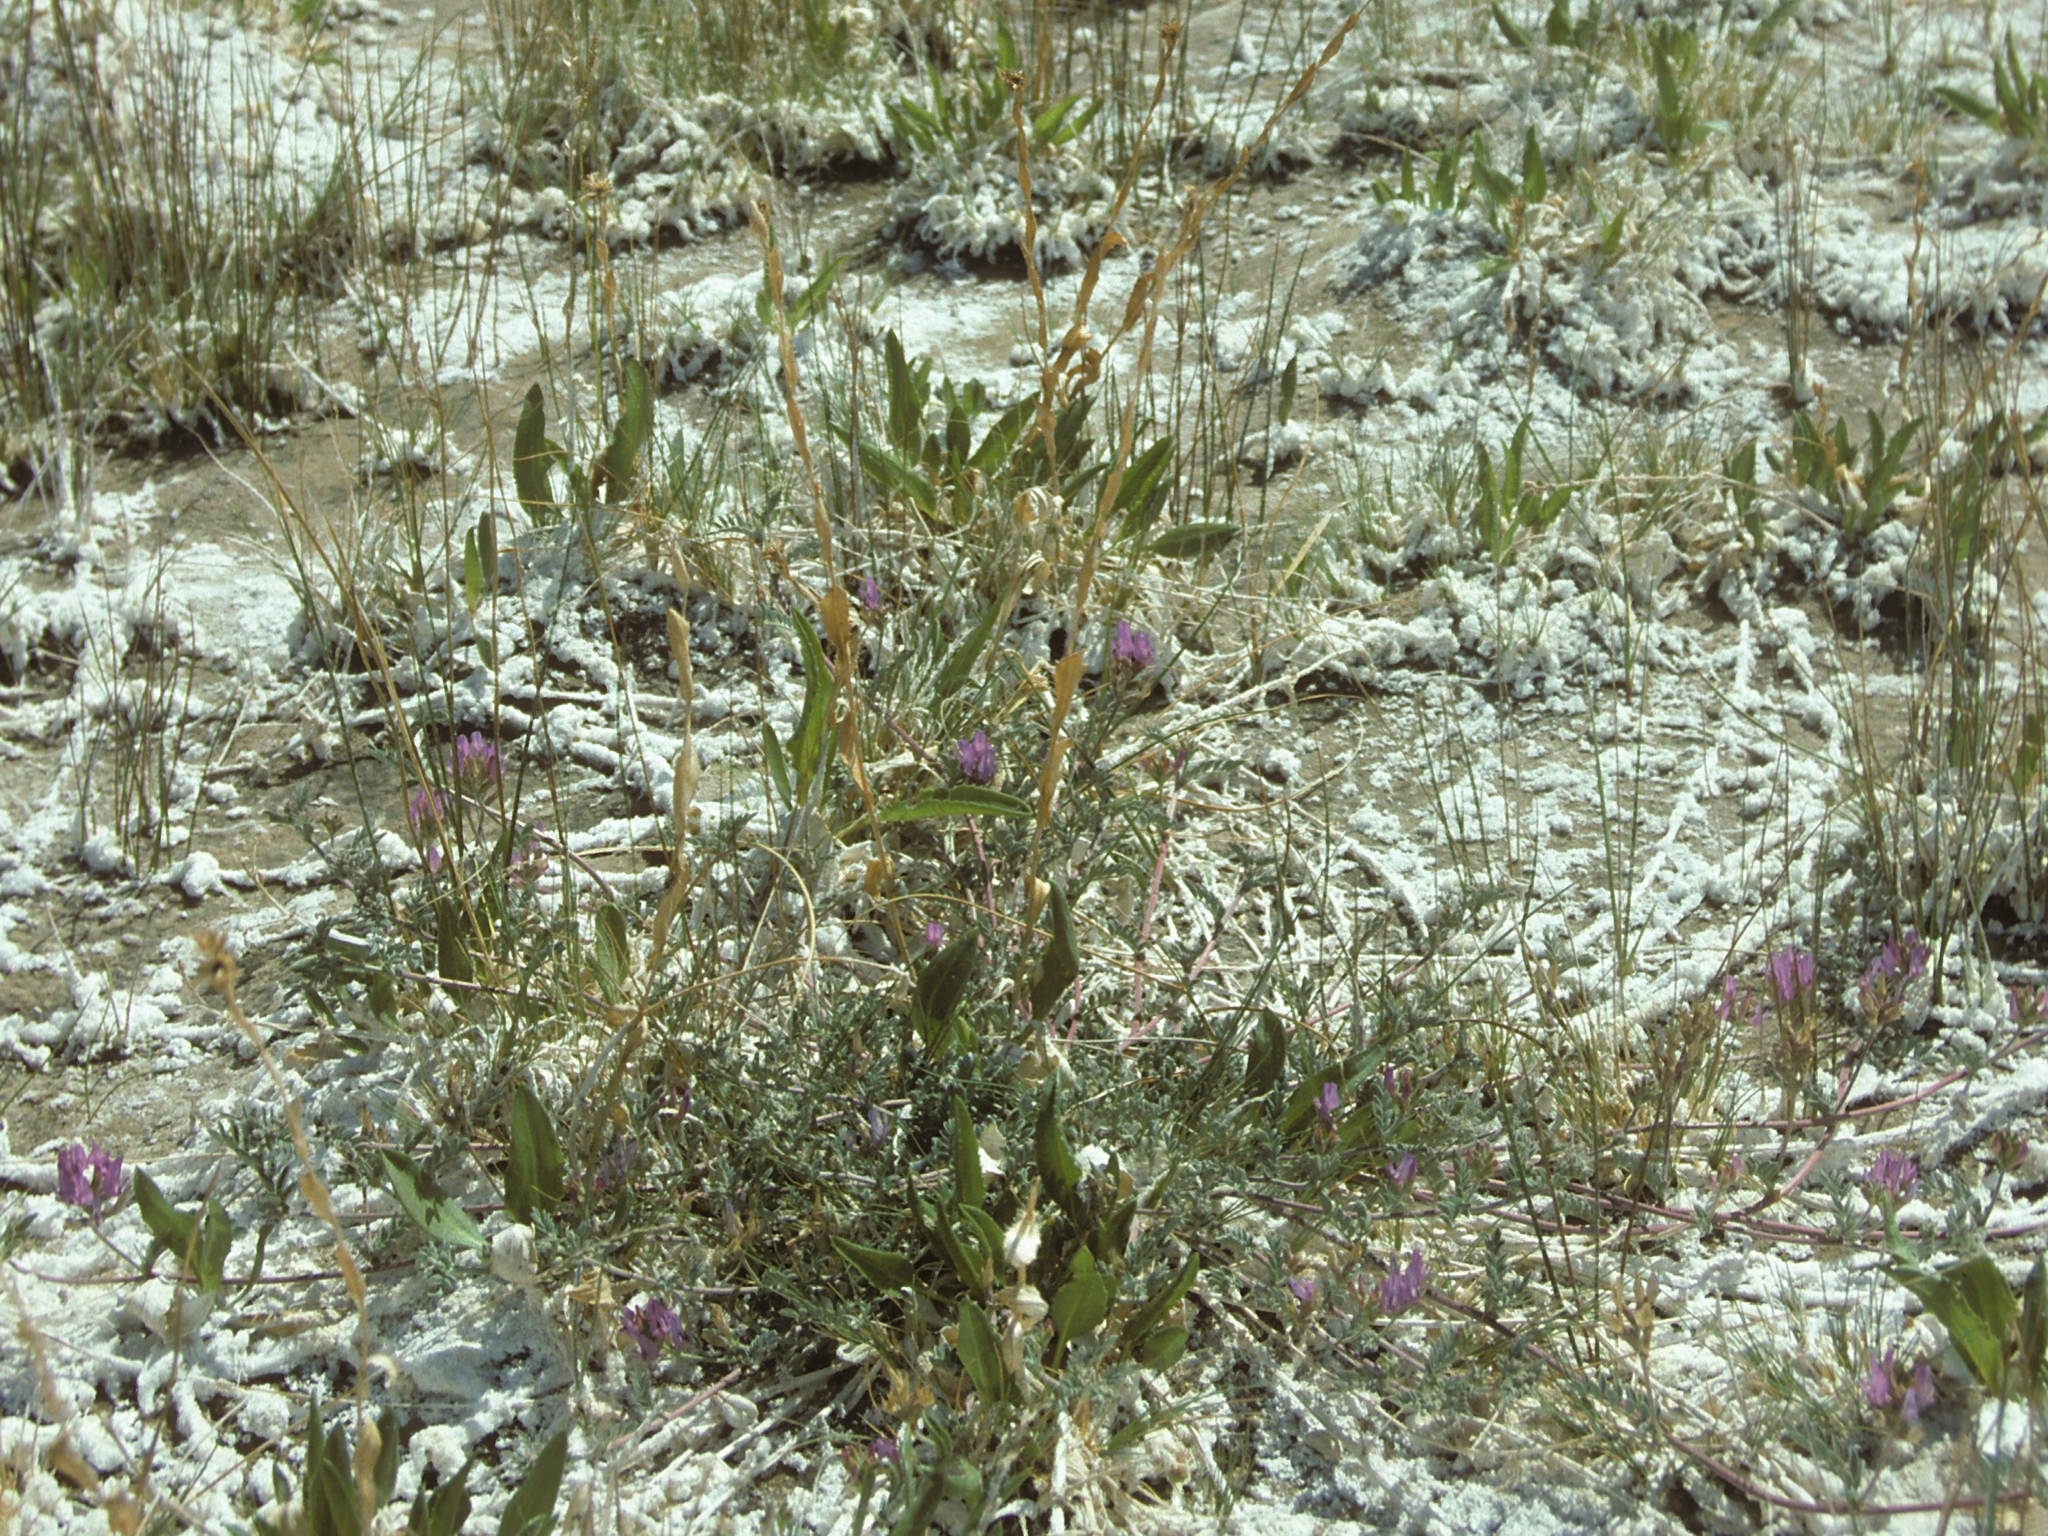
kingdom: Plantae
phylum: Tracheophyta
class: Magnoliopsida
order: Fabales
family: Fabaceae
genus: Astragalus
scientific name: Astragalus lentiginosus
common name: Freckled milkvetch
